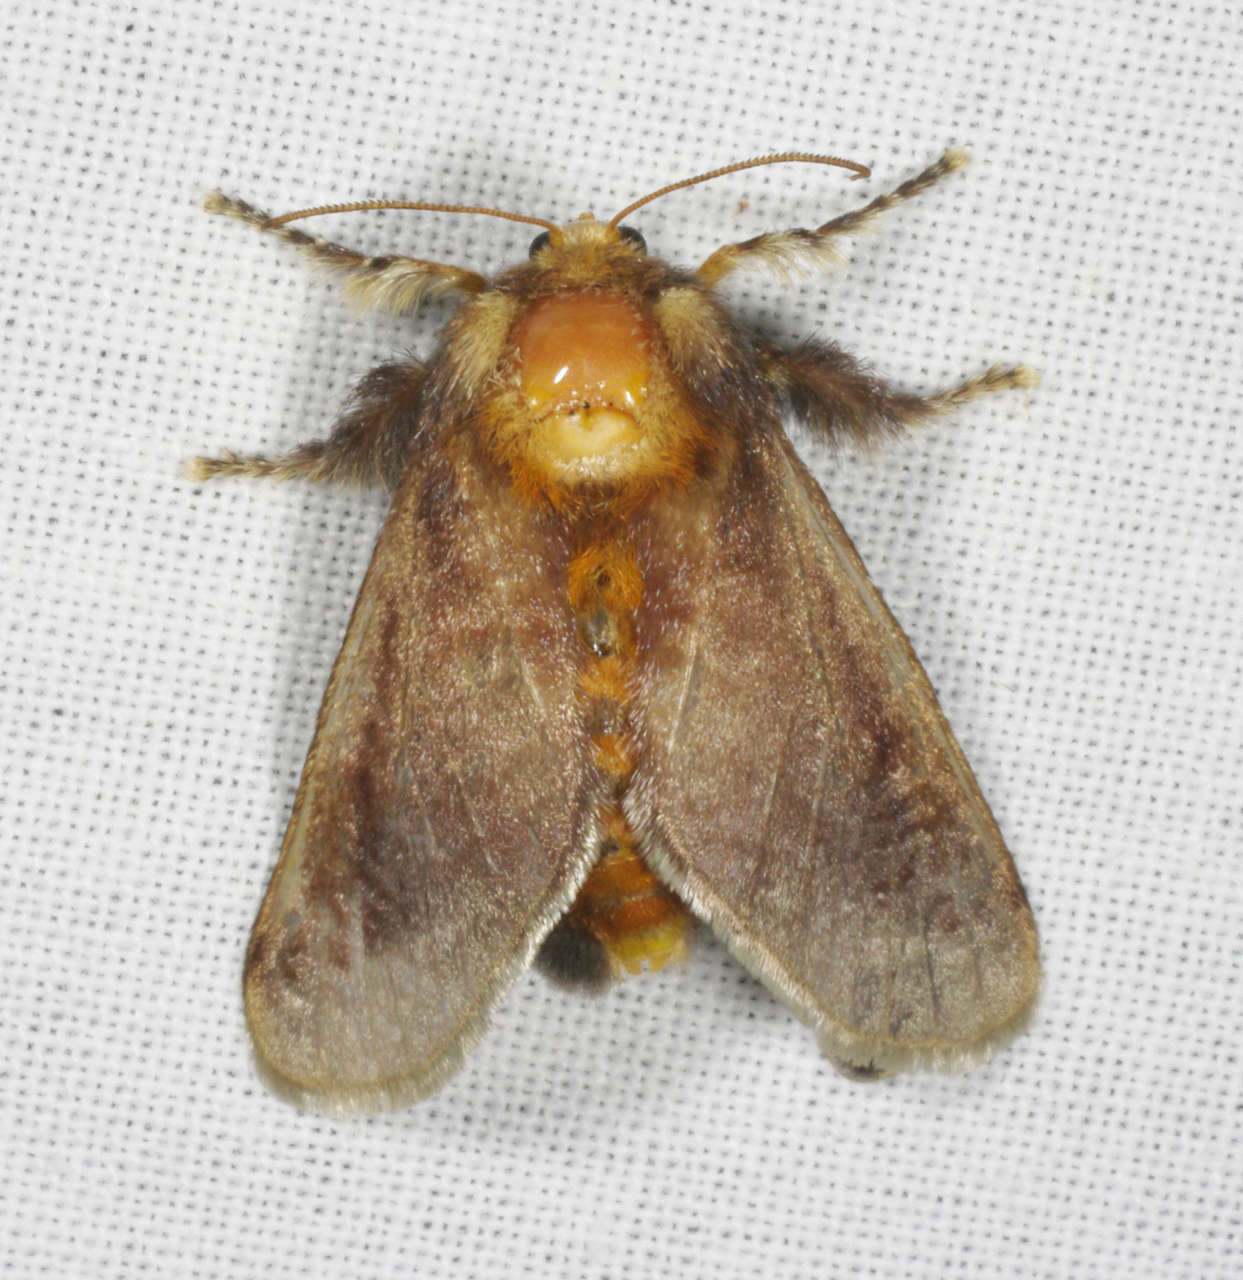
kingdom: Animalia
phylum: Arthropoda
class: Insecta
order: Lepidoptera
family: Limacodidae
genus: Doratifera
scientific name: Doratifera oxleyi
